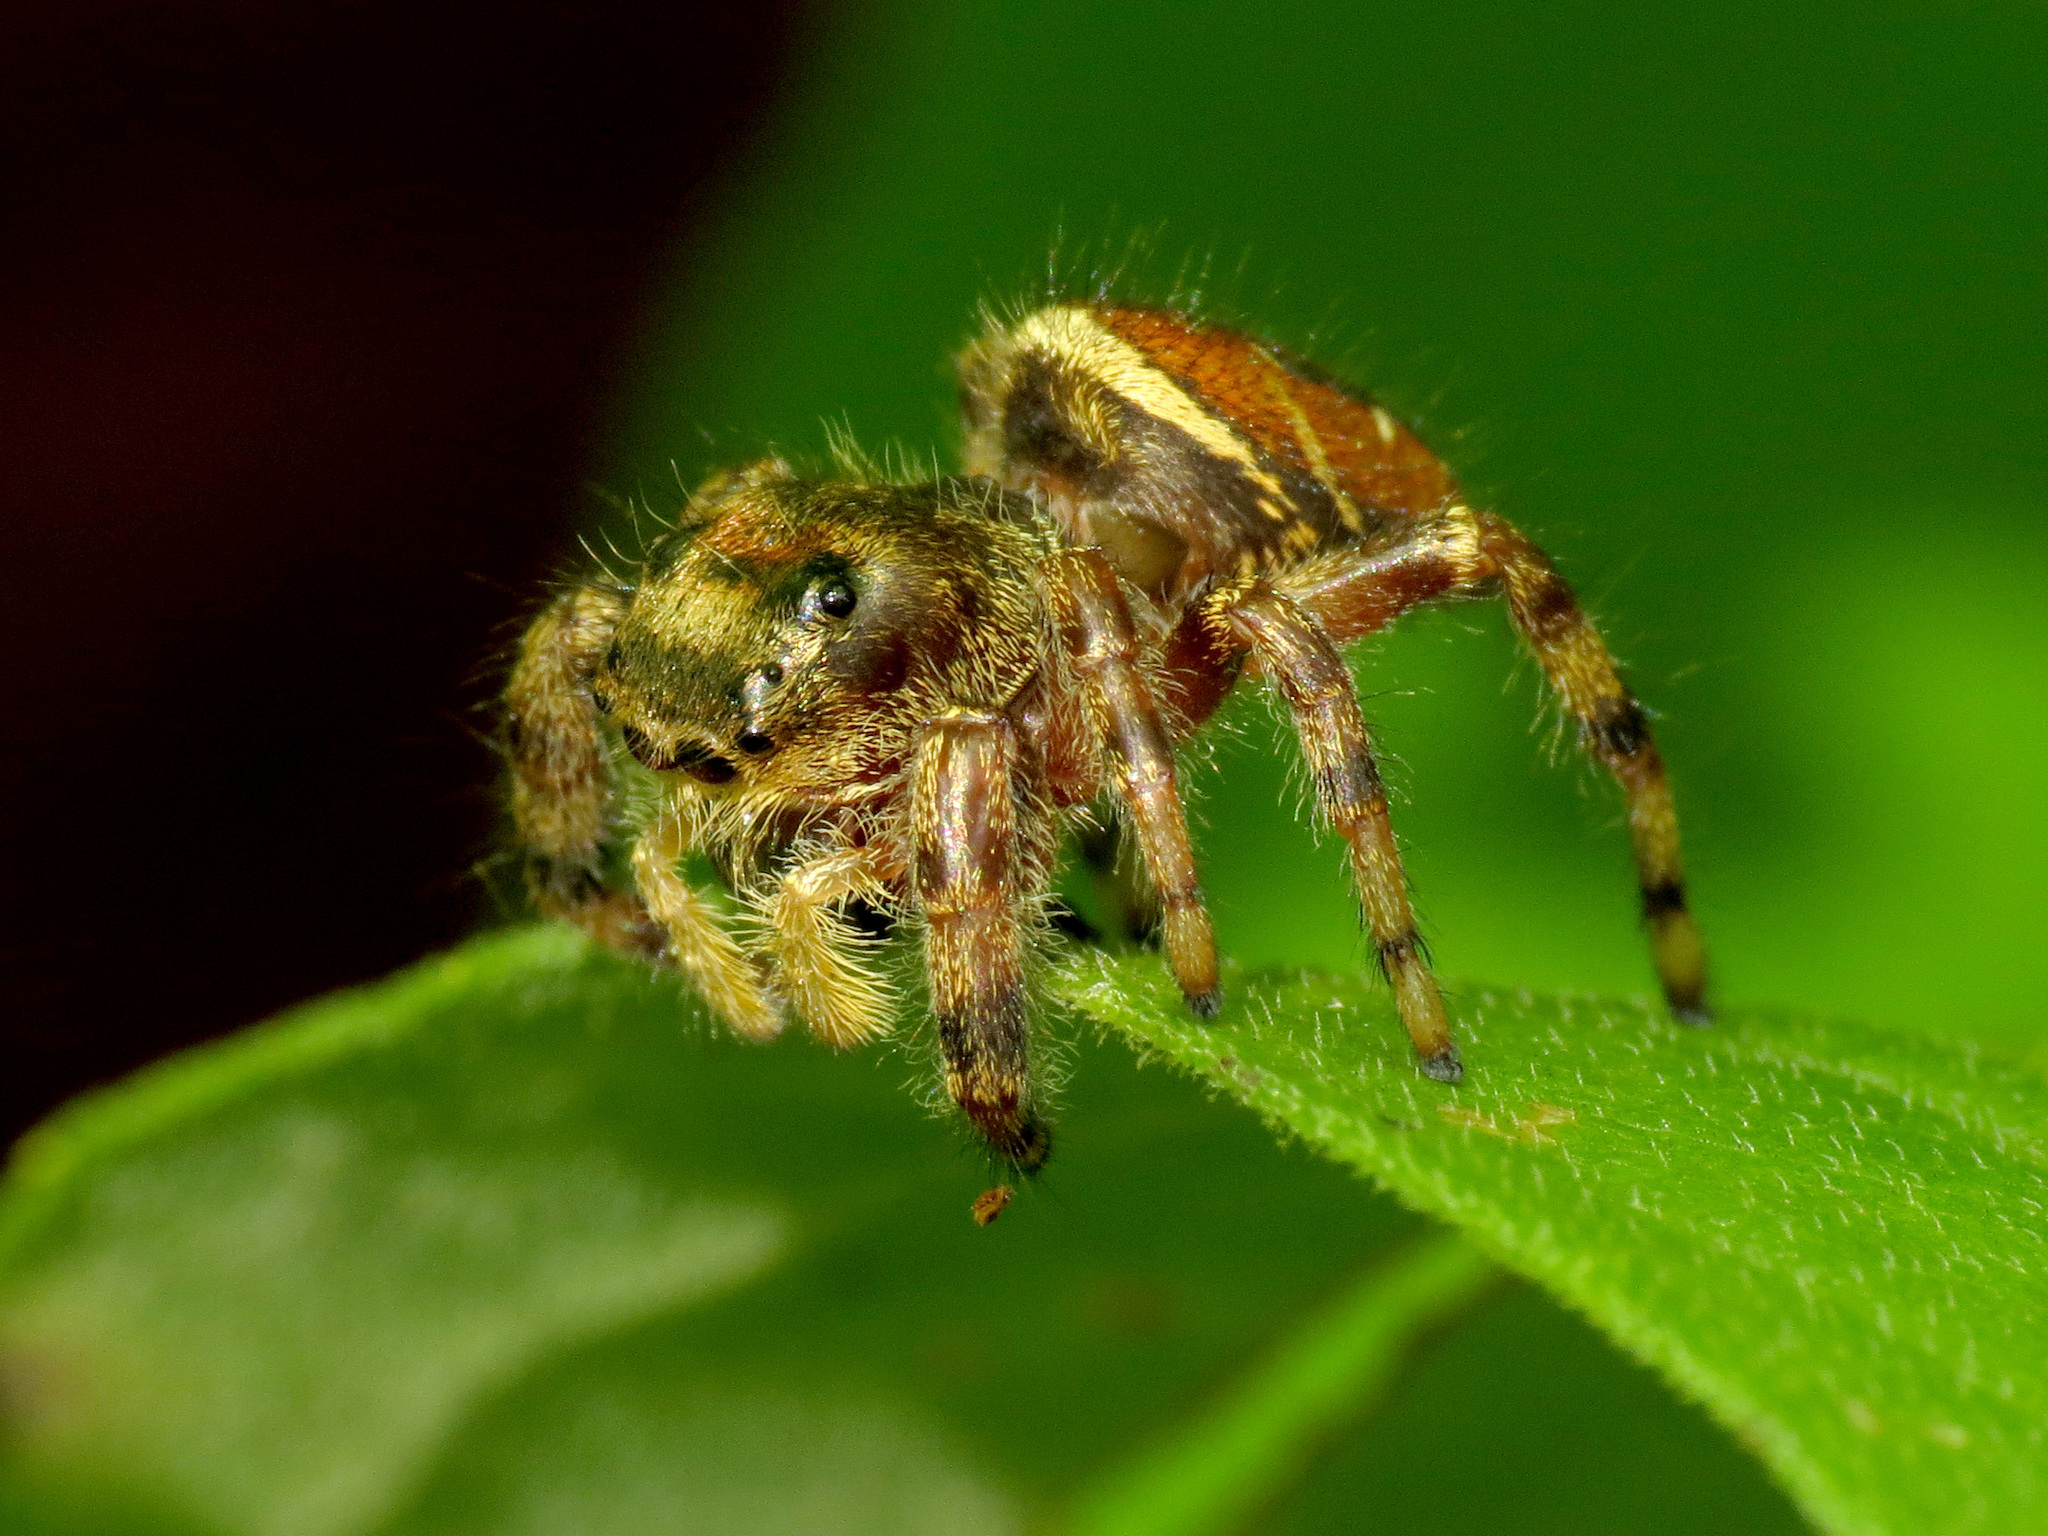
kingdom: Animalia
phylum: Arthropoda
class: Arachnida
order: Araneae
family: Salticidae
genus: Phidippus
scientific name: Phidippus clarus
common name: Brilliant jumping spider
